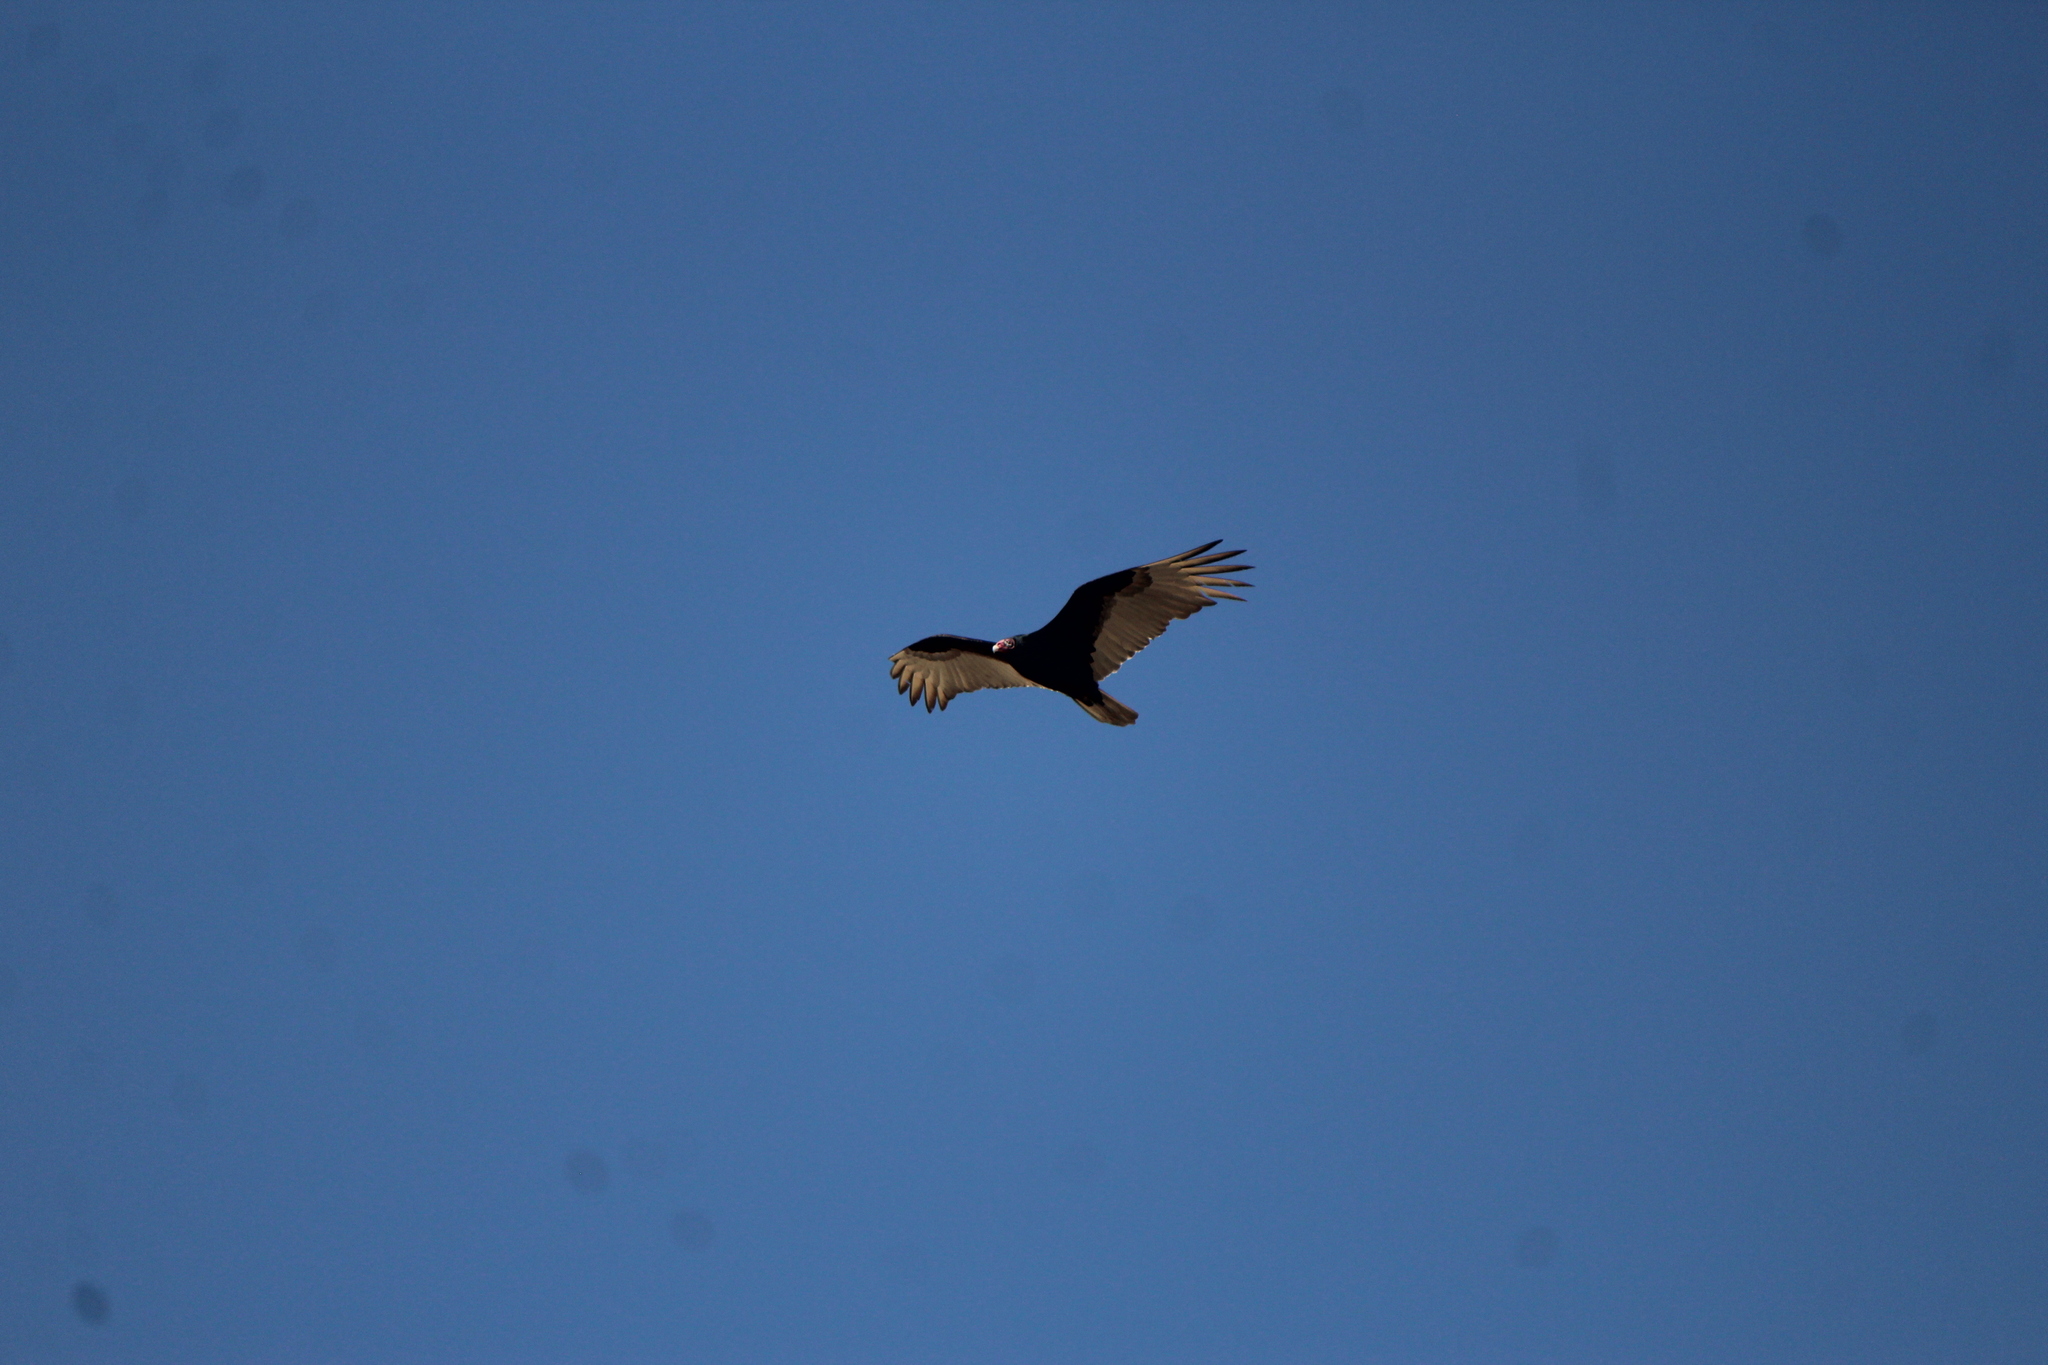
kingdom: Animalia
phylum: Chordata
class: Aves
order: Accipitriformes
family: Cathartidae
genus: Cathartes
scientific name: Cathartes aura
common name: Turkey vulture
